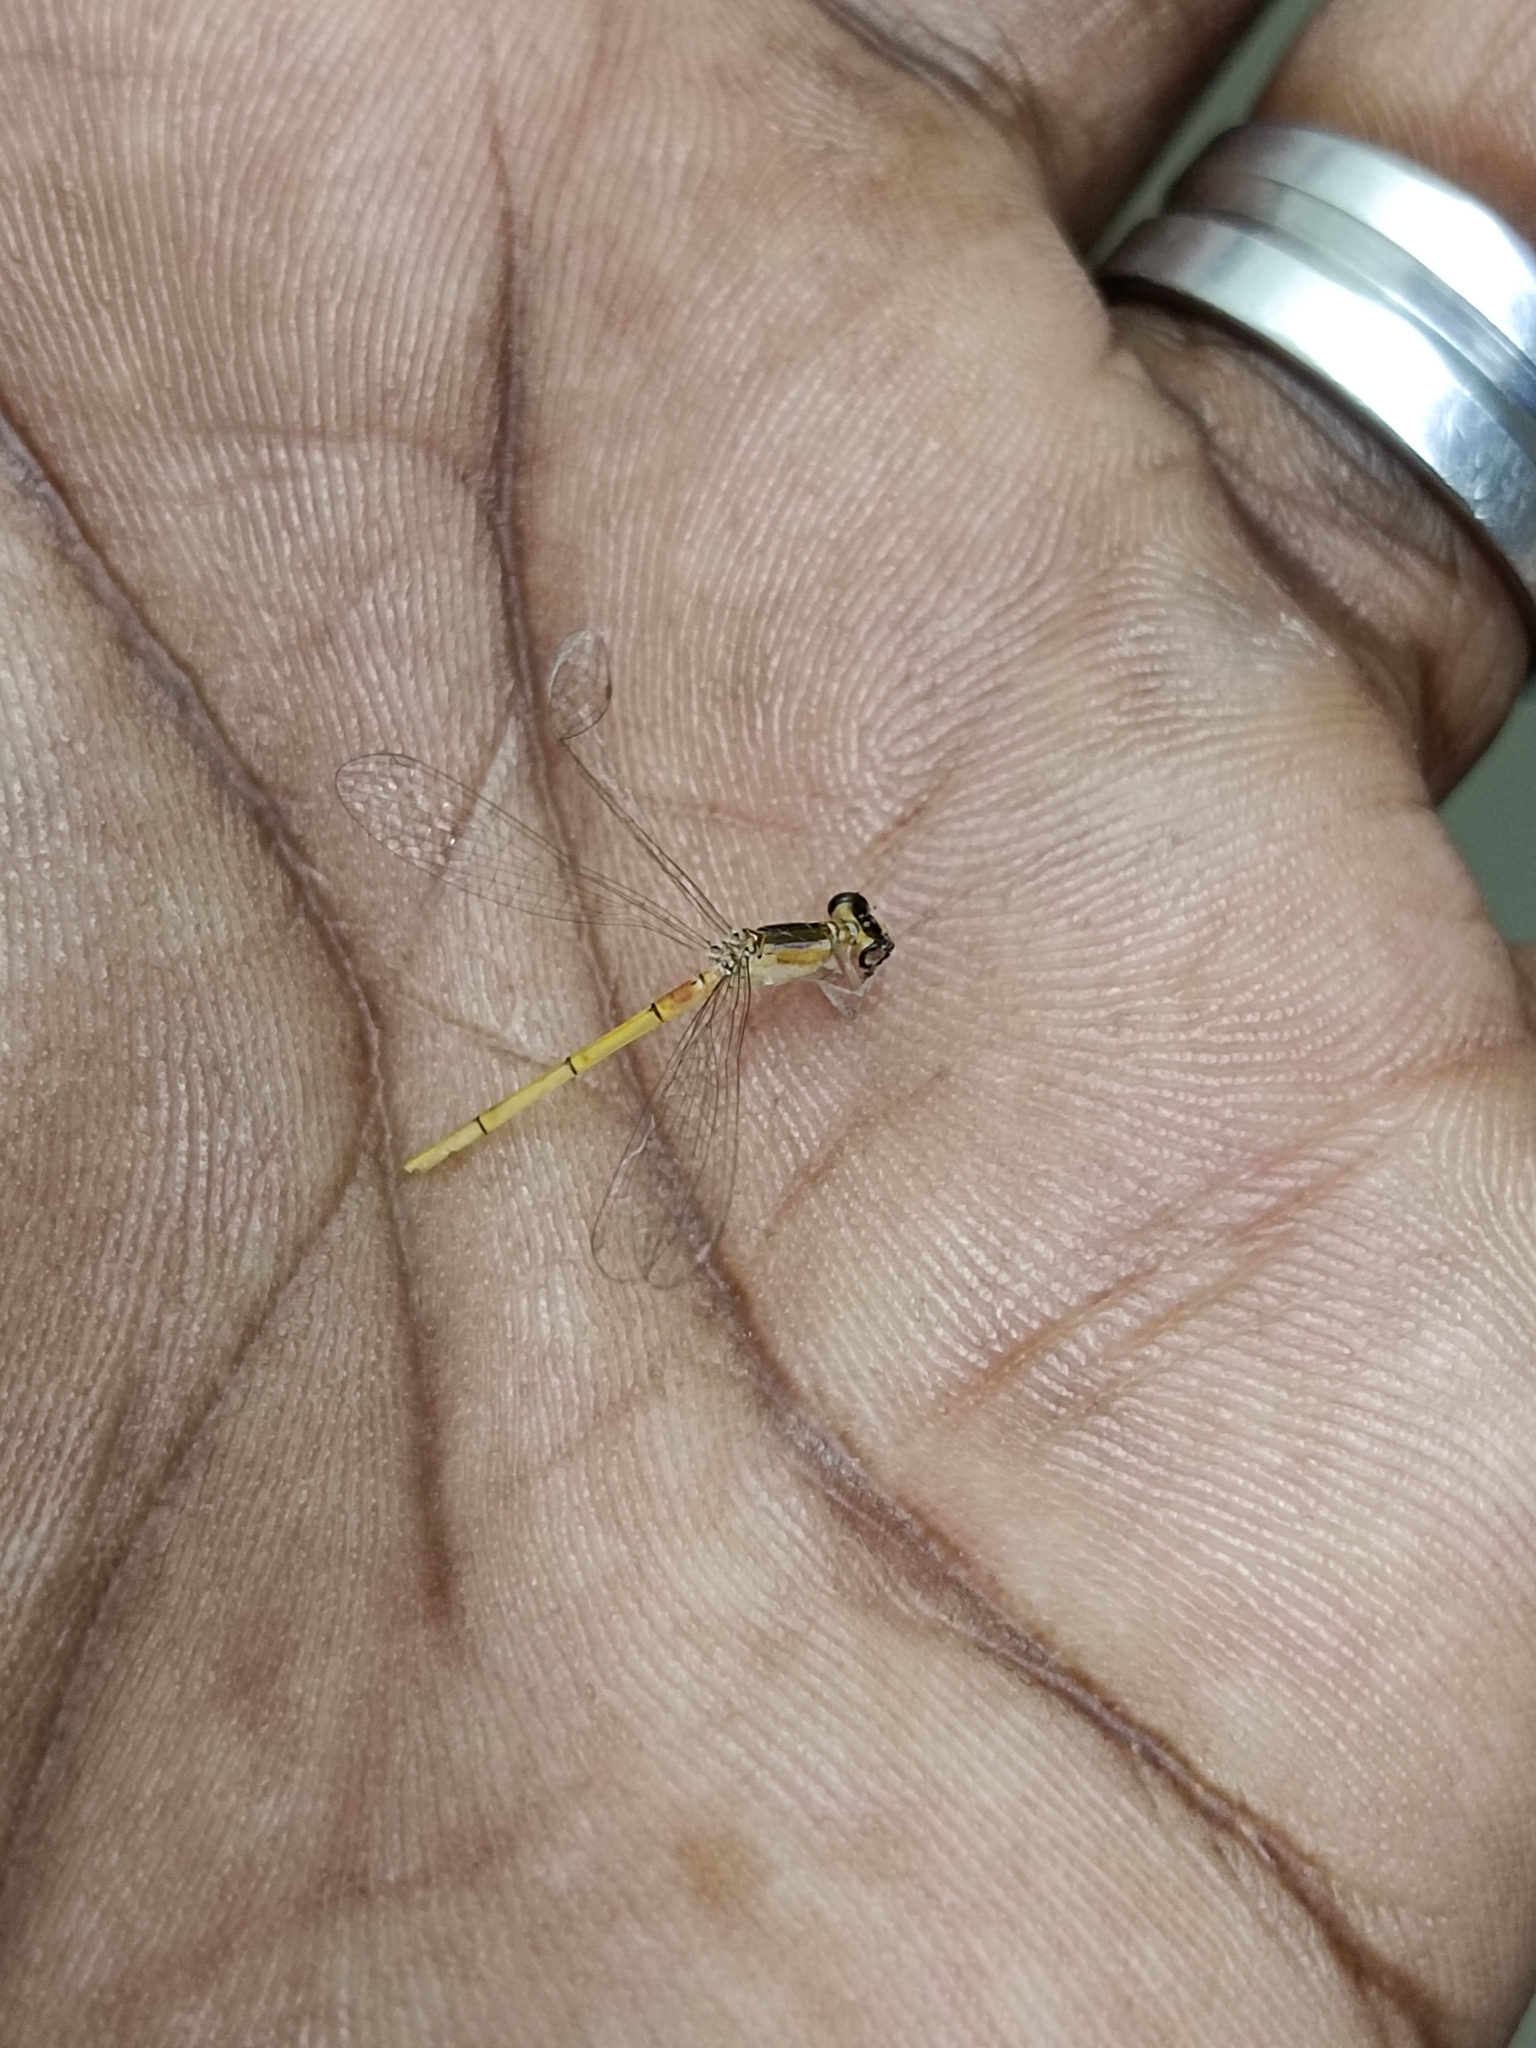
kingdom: Animalia
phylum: Arthropoda
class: Insecta
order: Odonata
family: Coenagrionidae
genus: Agriocnemis
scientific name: Agriocnemis pygmaea
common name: Pygmy wisp
